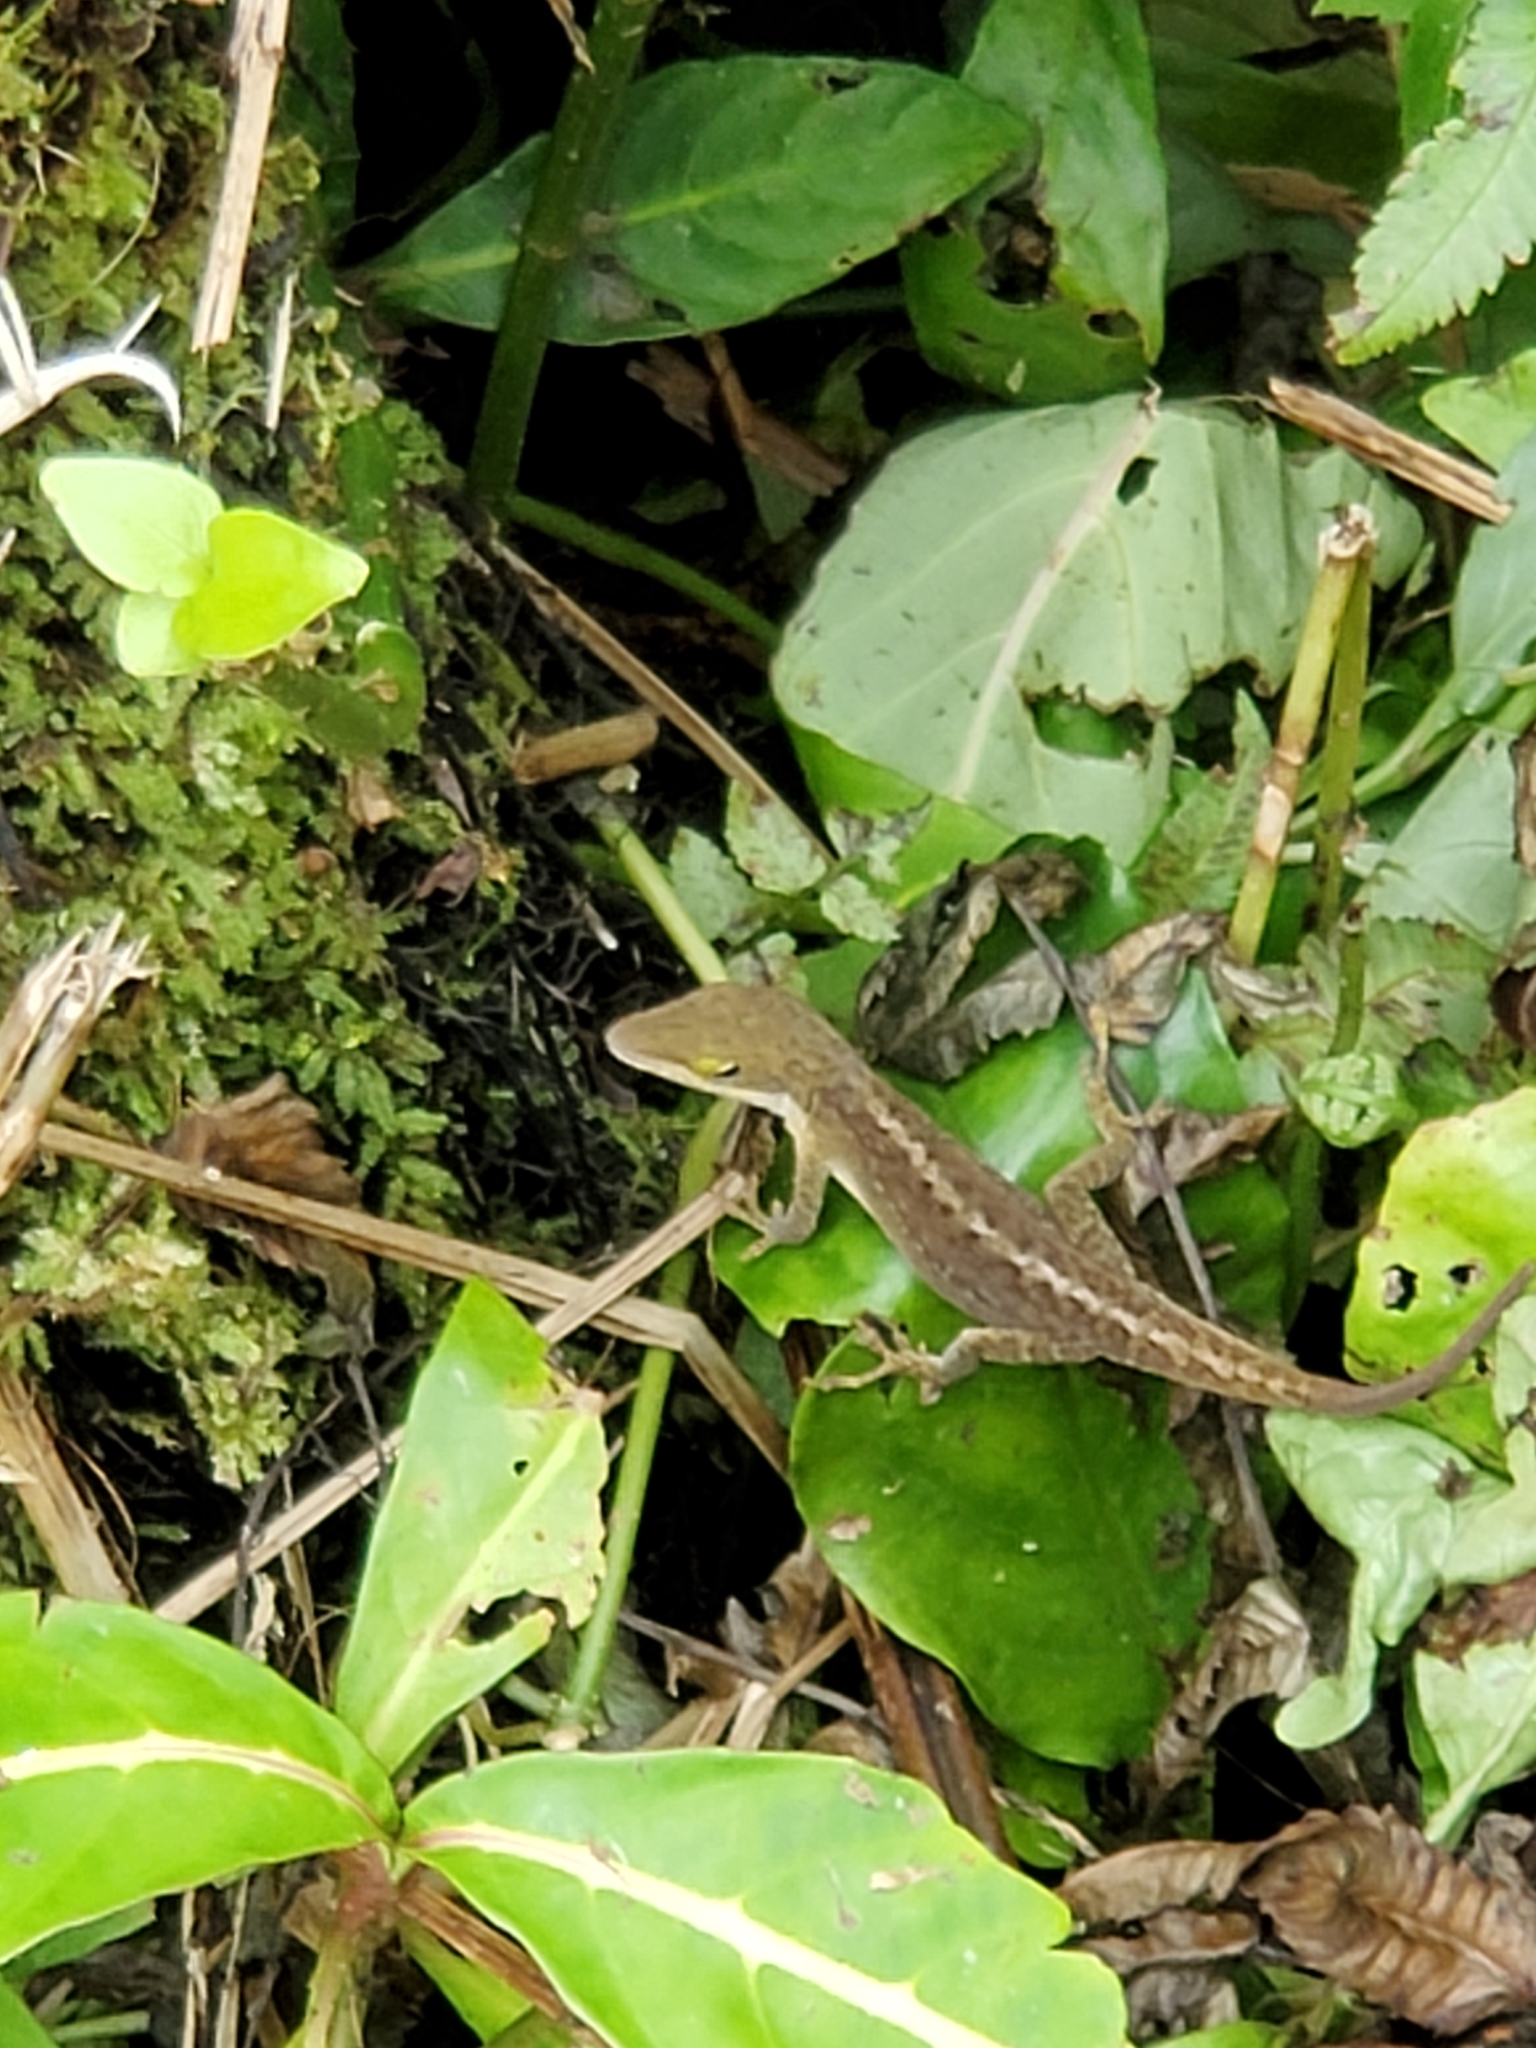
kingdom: Animalia
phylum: Chordata
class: Squamata
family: Dactyloidae
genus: Anolis
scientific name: Anolis carolinensis
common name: Green anole
